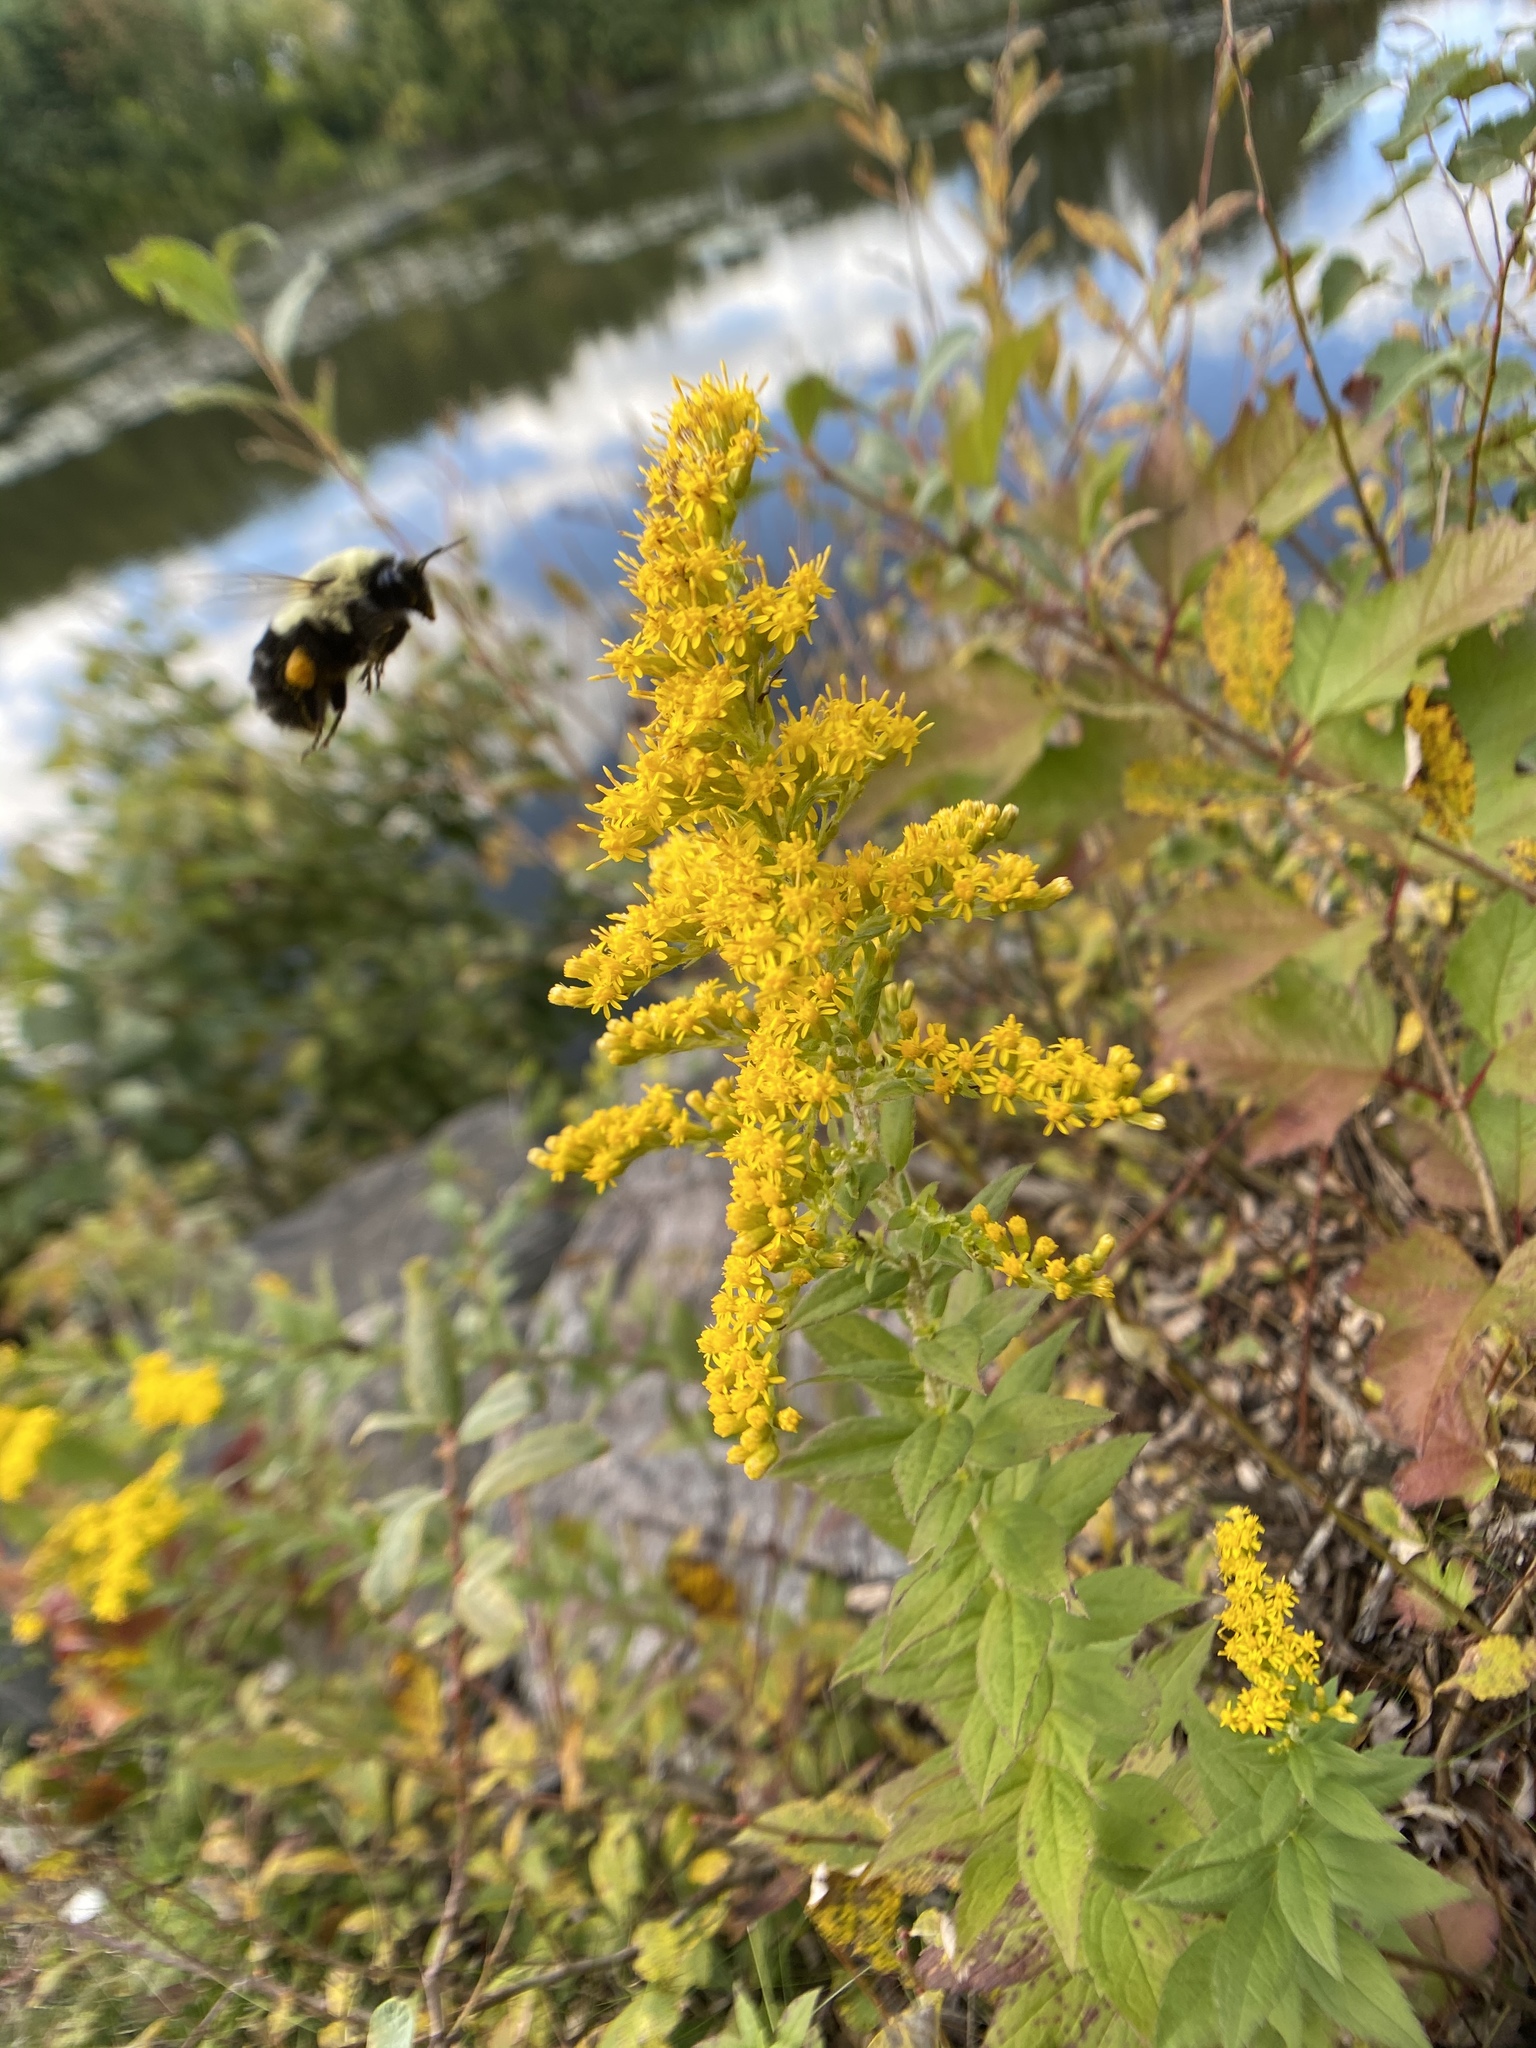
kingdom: Animalia
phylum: Arthropoda
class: Insecta
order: Hymenoptera
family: Apidae
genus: Bombus
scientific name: Bombus impatiens
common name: Common eastern bumble bee
